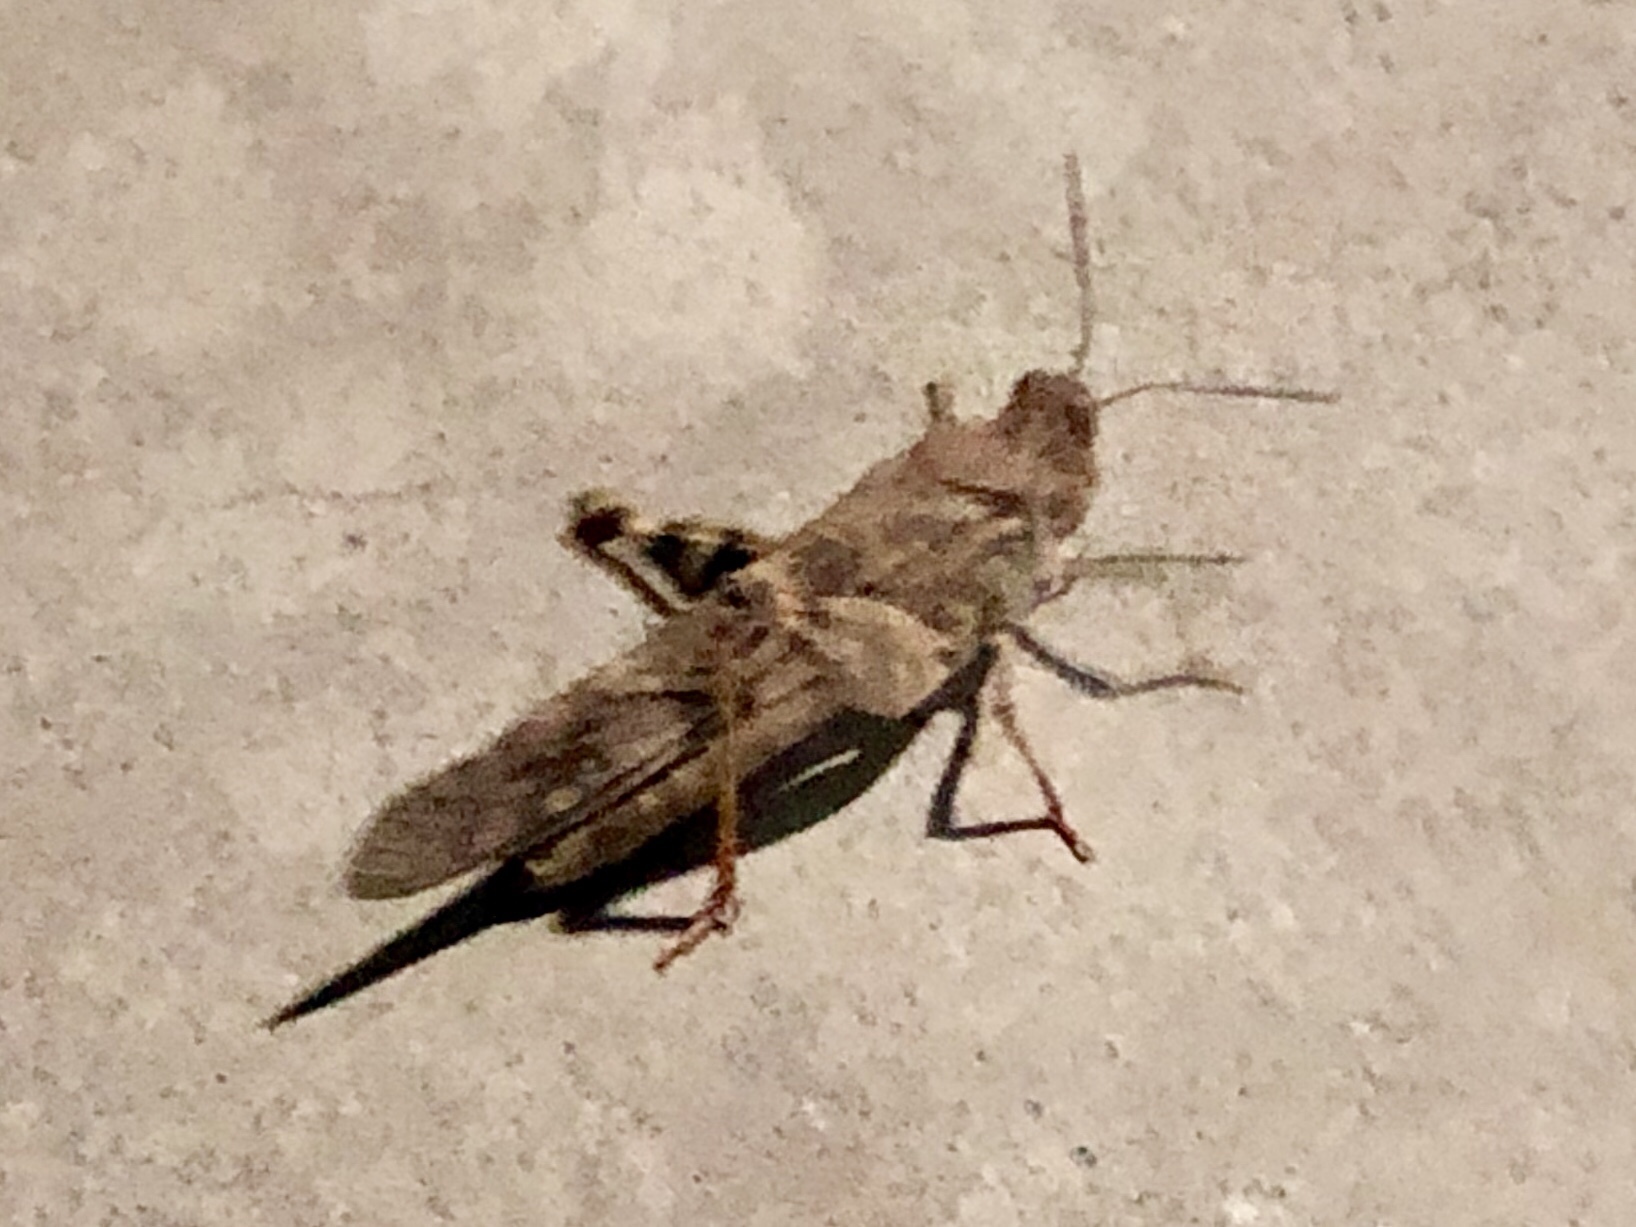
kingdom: Animalia
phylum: Arthropoda
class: Insecta
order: Orthoptera
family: Acrididae
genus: Trimerotropis
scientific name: Trimerotropis pallidipennis
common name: Pallid-winged grasshopper
